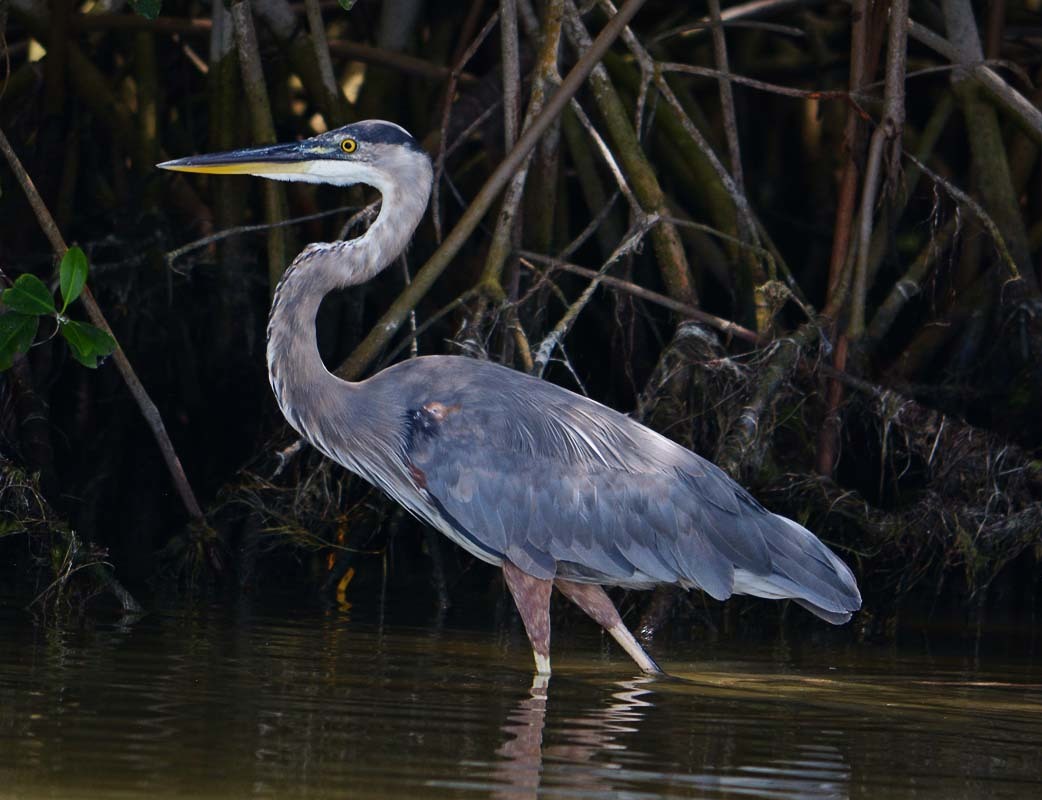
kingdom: Animalia
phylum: Chordata
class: Aves
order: Pelecaniformes
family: Ardeidae
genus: Ardea
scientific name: Ardea herodias
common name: Great blue heron
